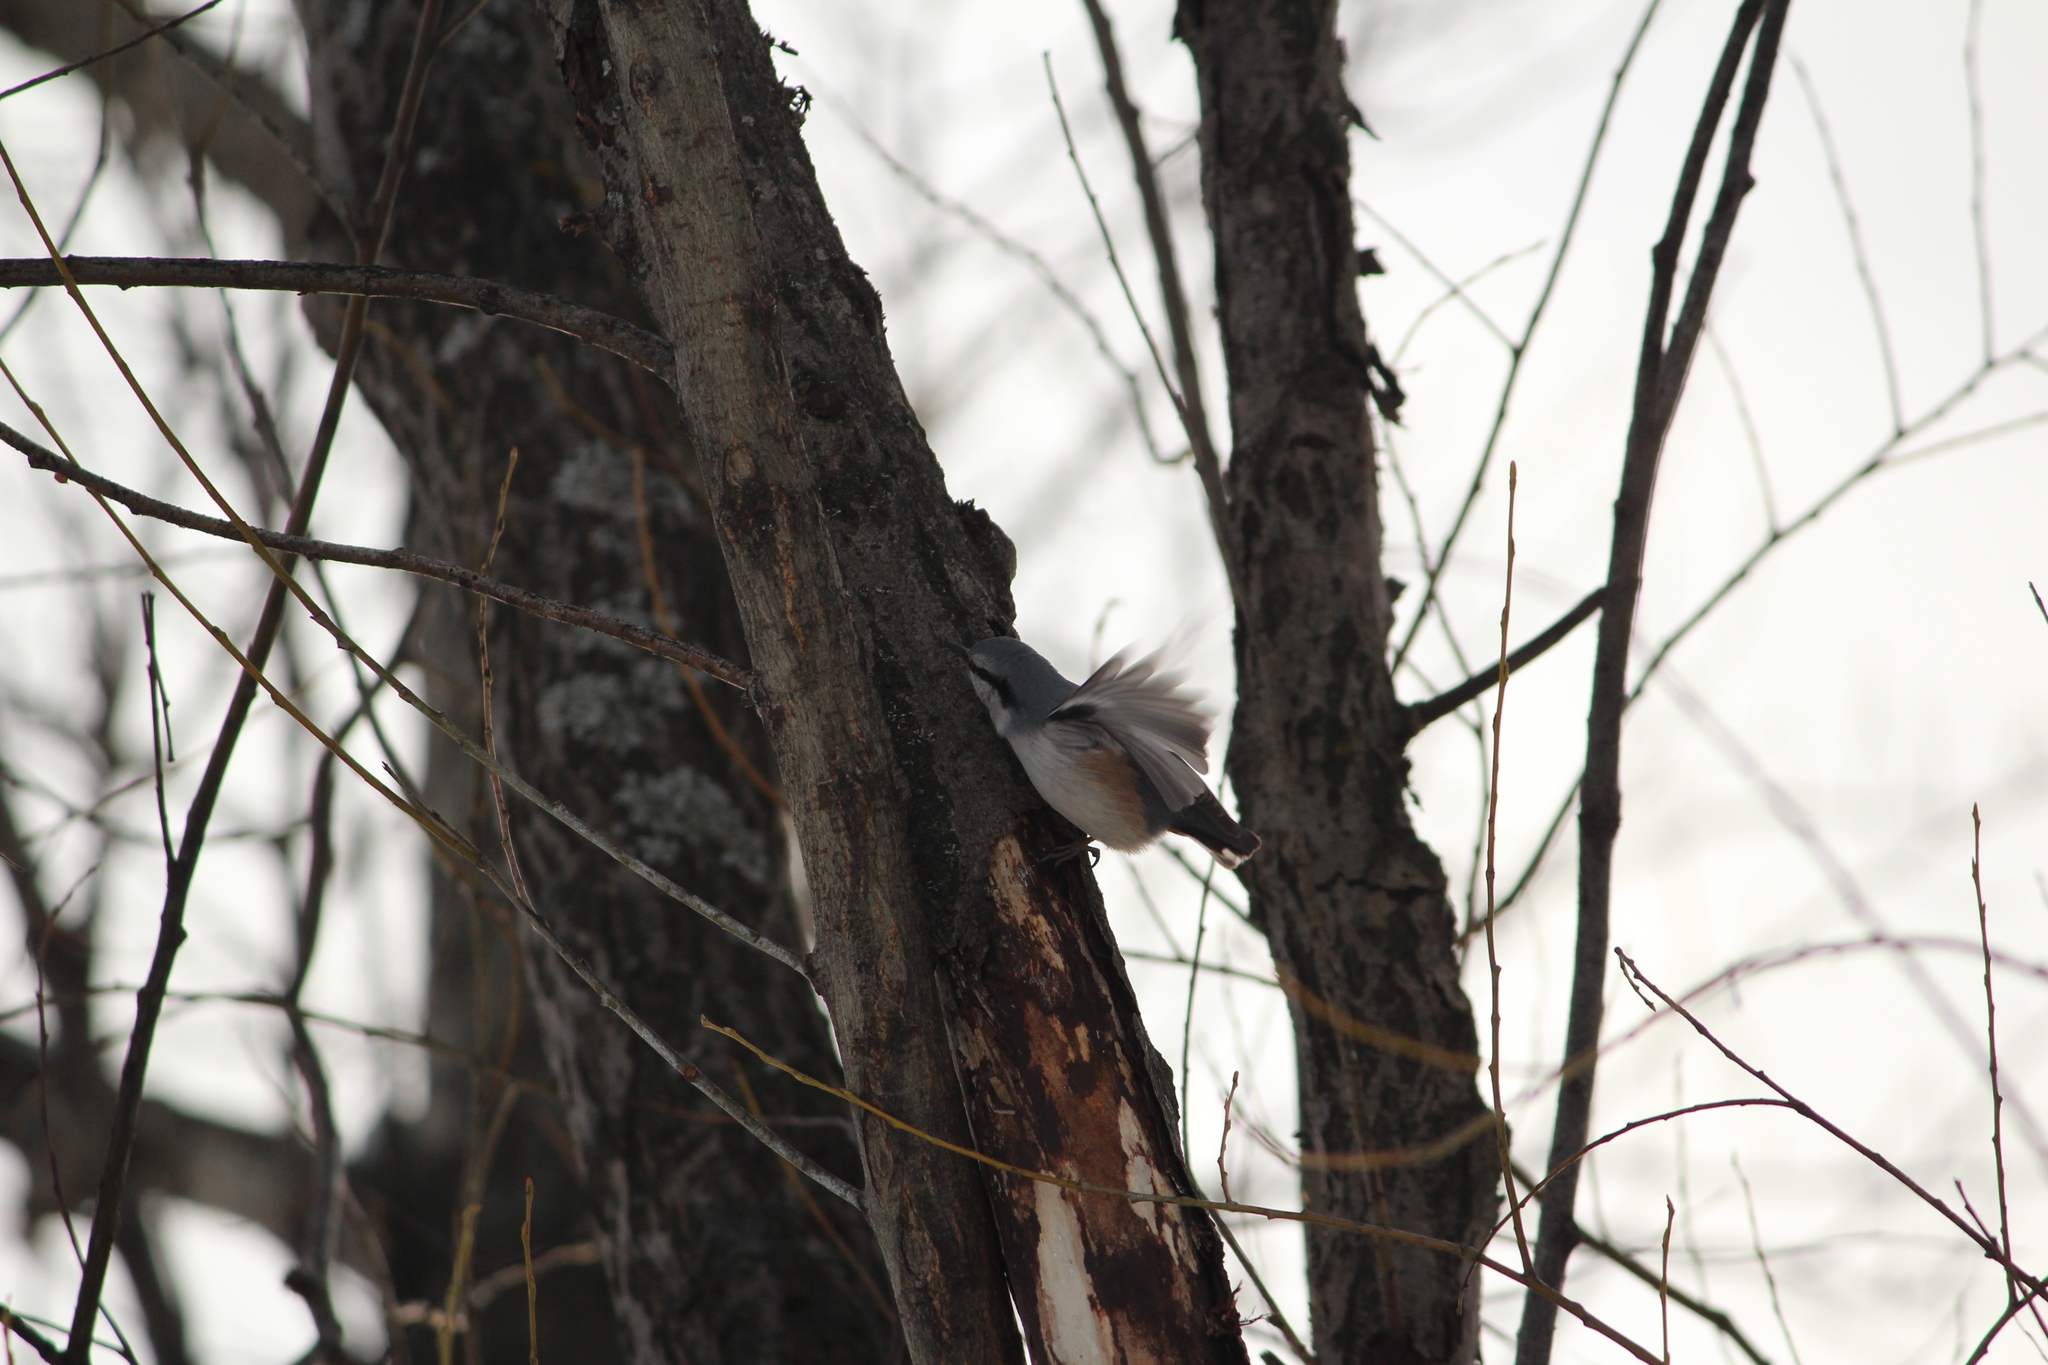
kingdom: Animalia
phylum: Chordata
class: Aves
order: Passeriformes
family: Sittidae
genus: Sitta
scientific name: Sitta europaea
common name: Eurasian nuthatch
